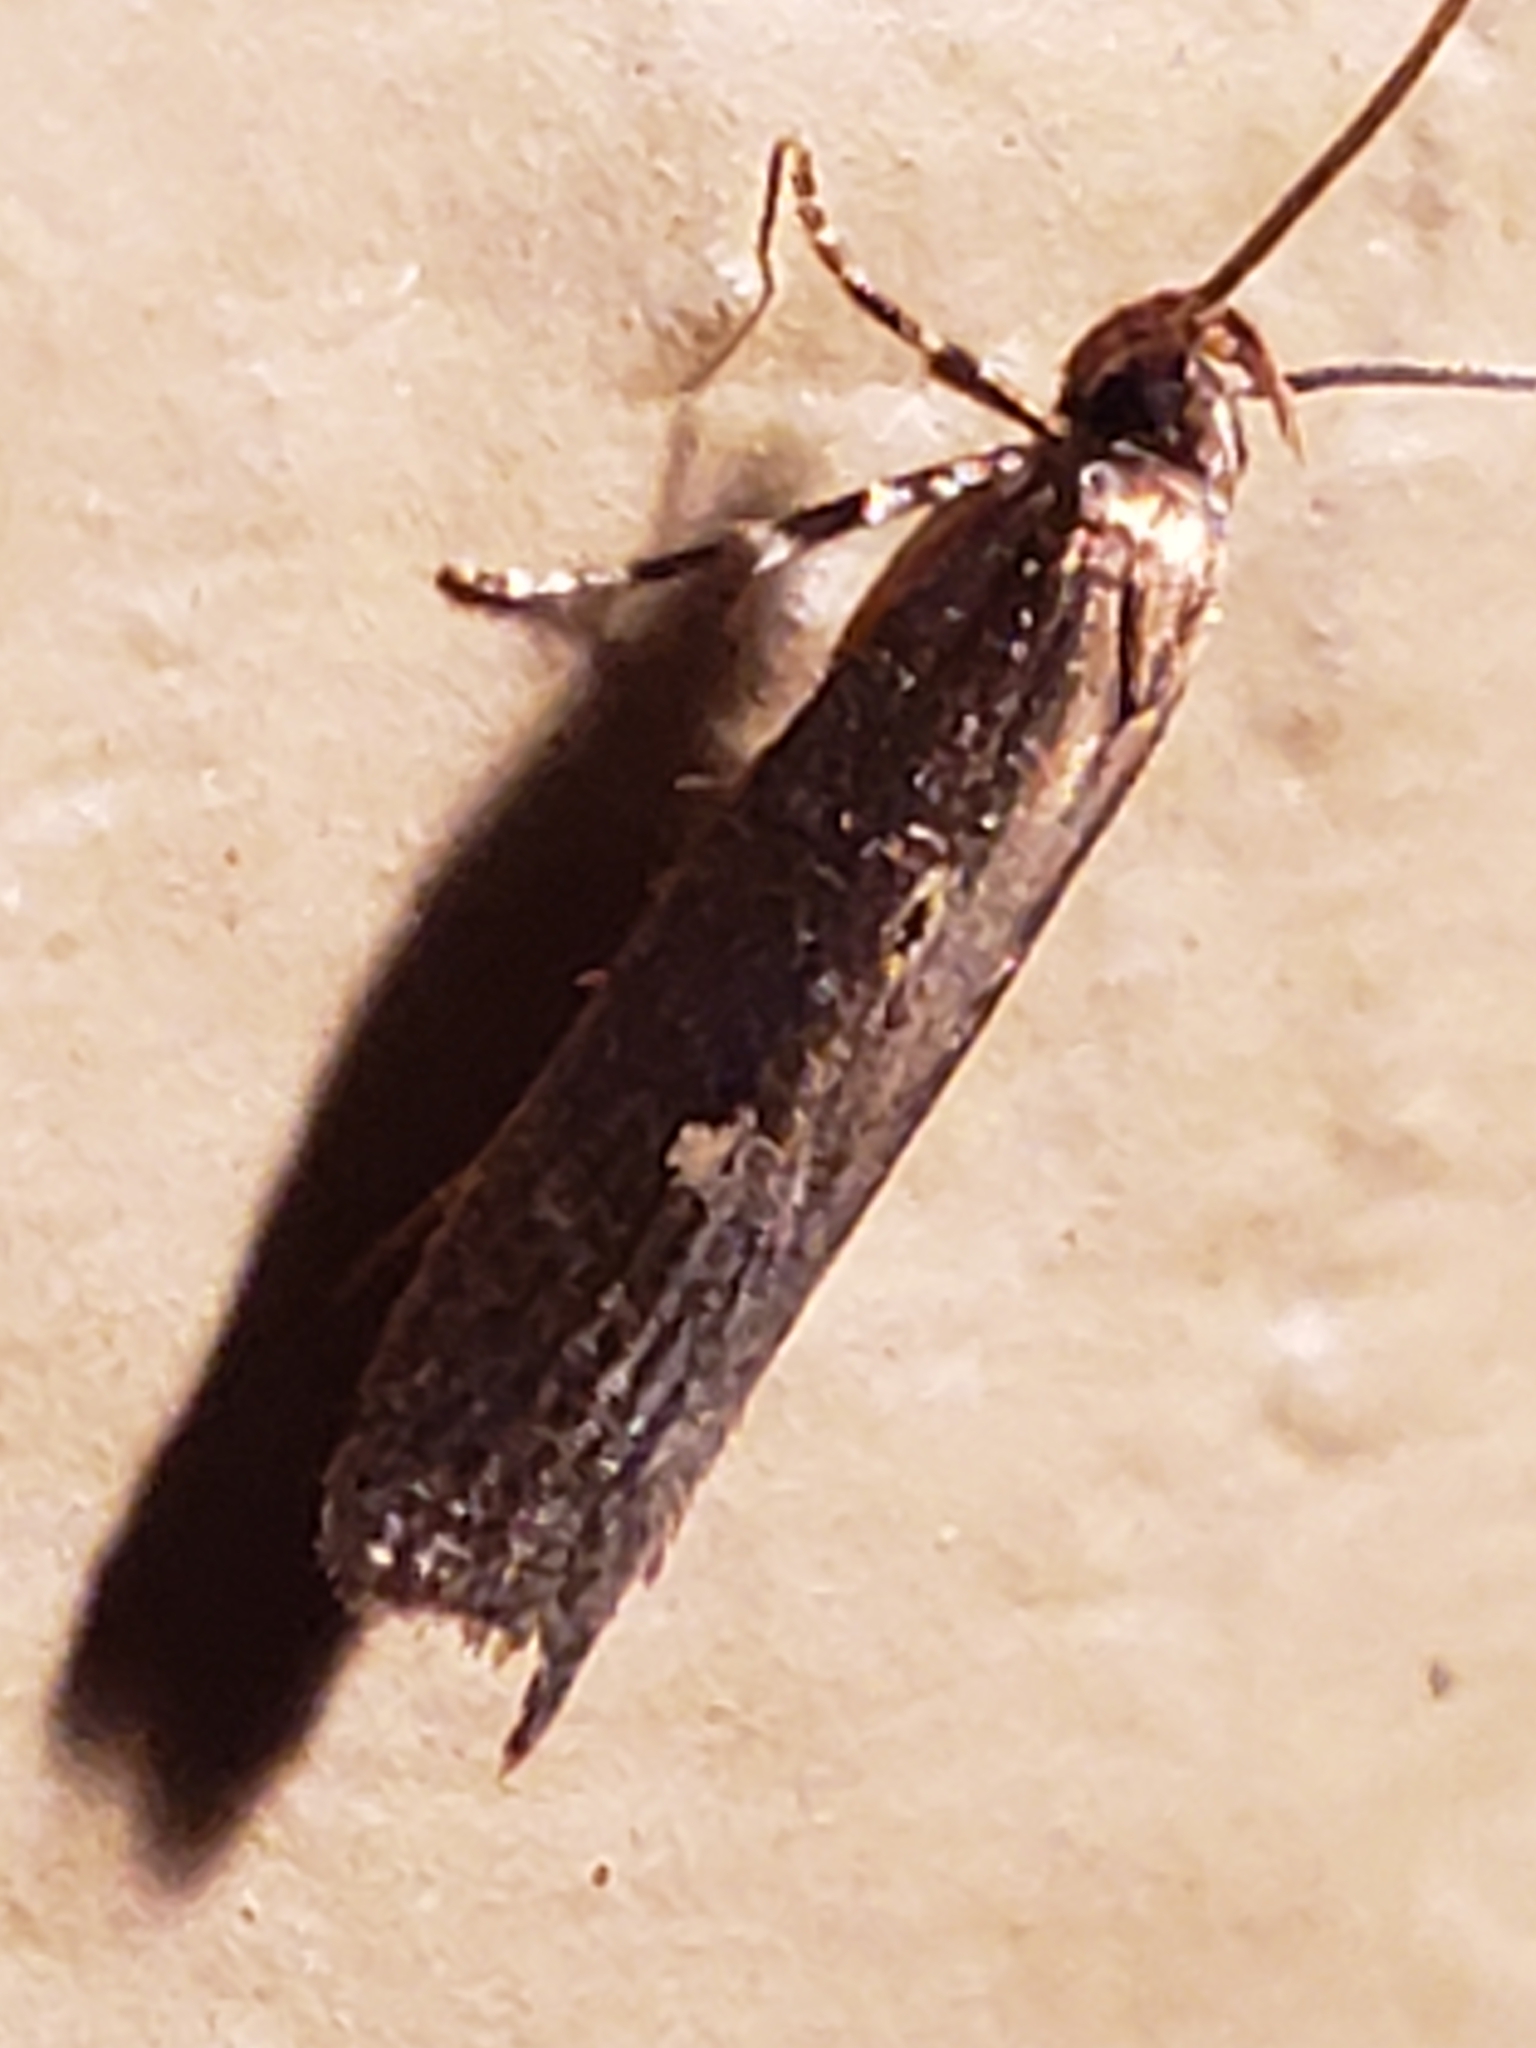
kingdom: Animalia
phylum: Arthropoda
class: Insecta
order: Lepidoptera
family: Gelechiidae
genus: Chionodes
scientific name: Chionodes discoocellella
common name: Eye-ringed chionodes moth
